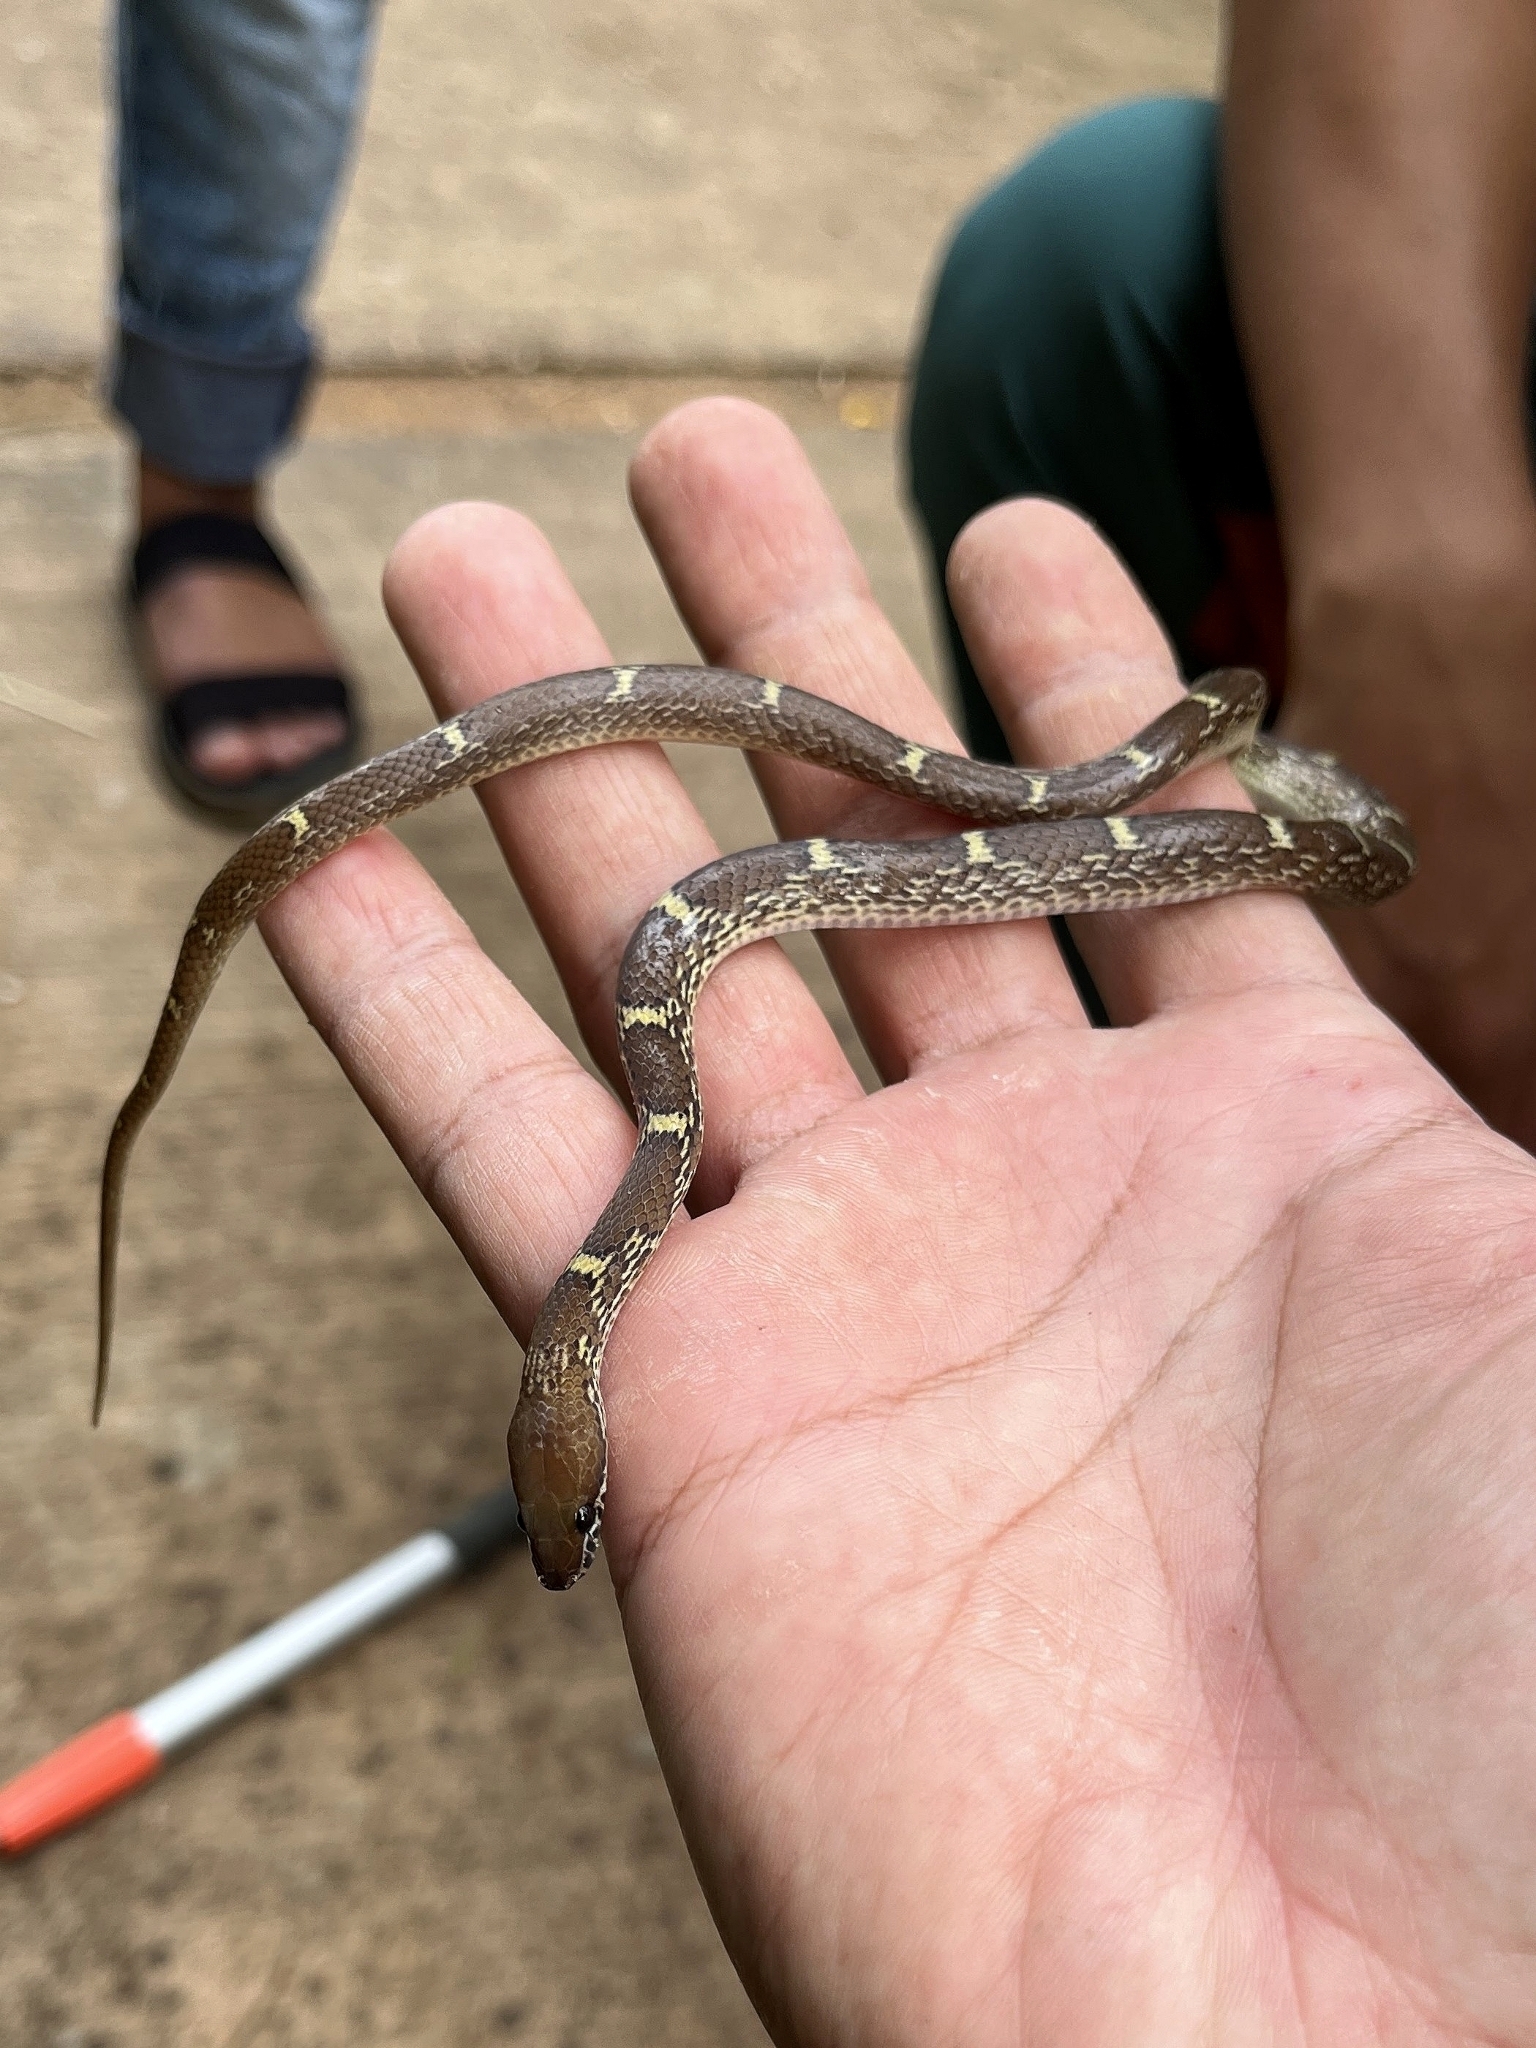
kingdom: Animalia
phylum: Chordata
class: Squamata
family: Colubridae
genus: Lycodon
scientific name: Lycodon fasciolatus
